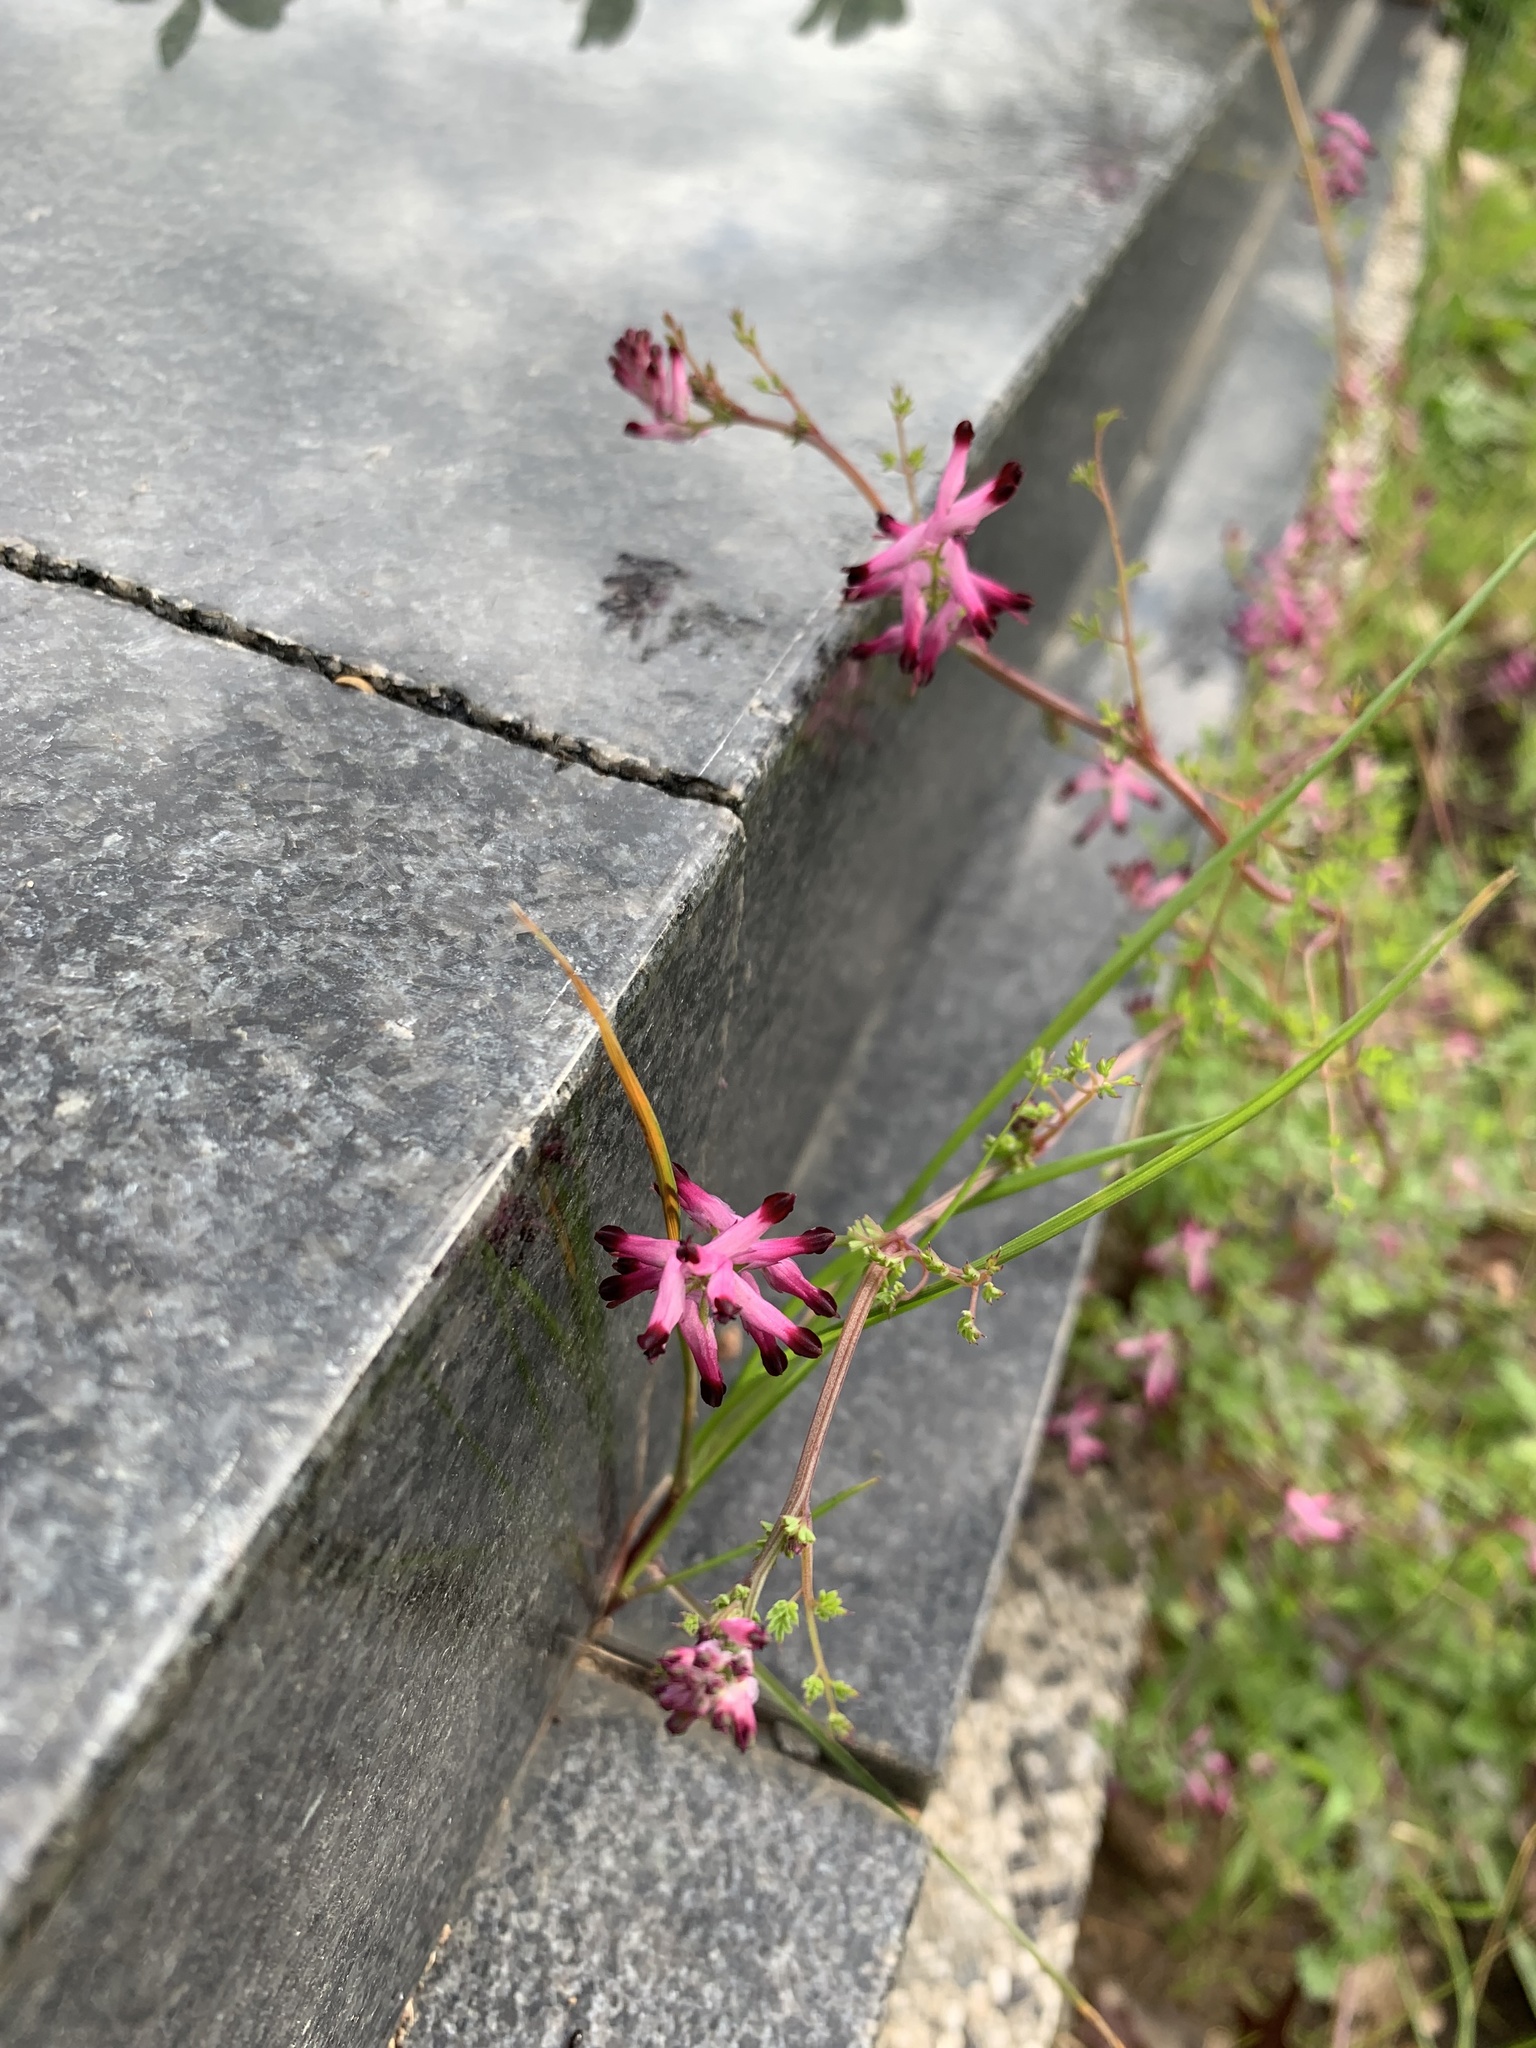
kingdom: Plantae
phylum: Tracheophyta
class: Magnoliopsida
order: Ranunculales
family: Papaveraceae
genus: Fumaria
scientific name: Fumaria muralis
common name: Common ramping-fumitory
